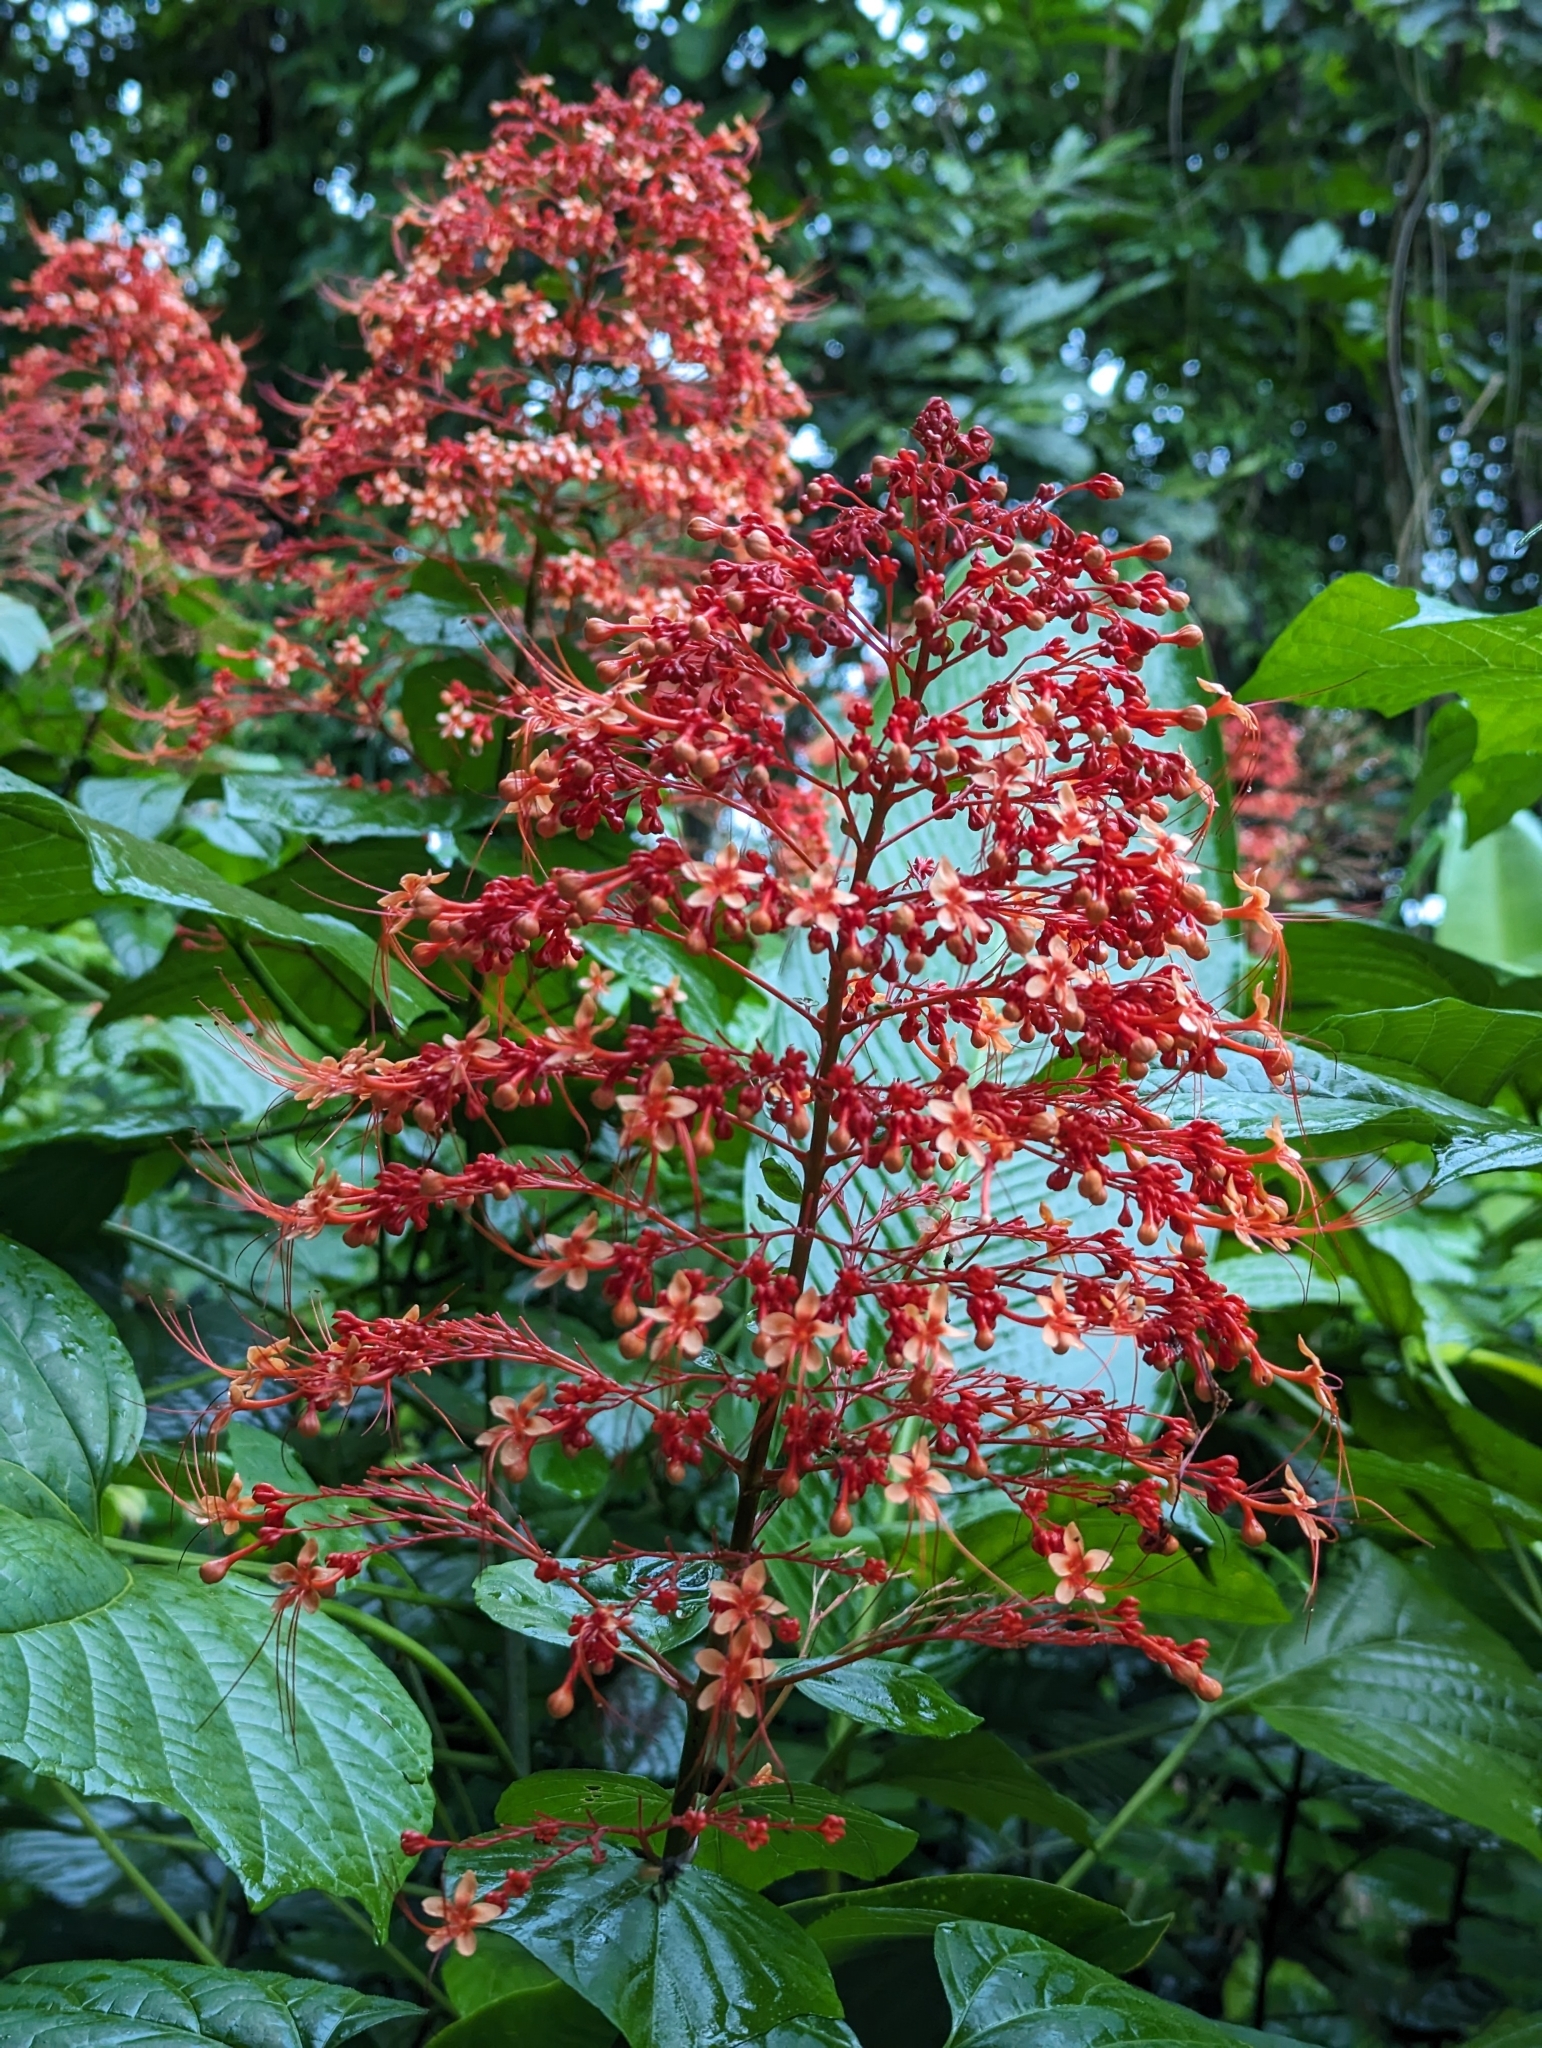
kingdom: Plantae
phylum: Tracheophyta
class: Magnoliopsida
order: Lamiales
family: Lamiaceae
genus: Clerodendrum
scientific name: Clerodendrum paniculatum
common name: Pagoda-flower
